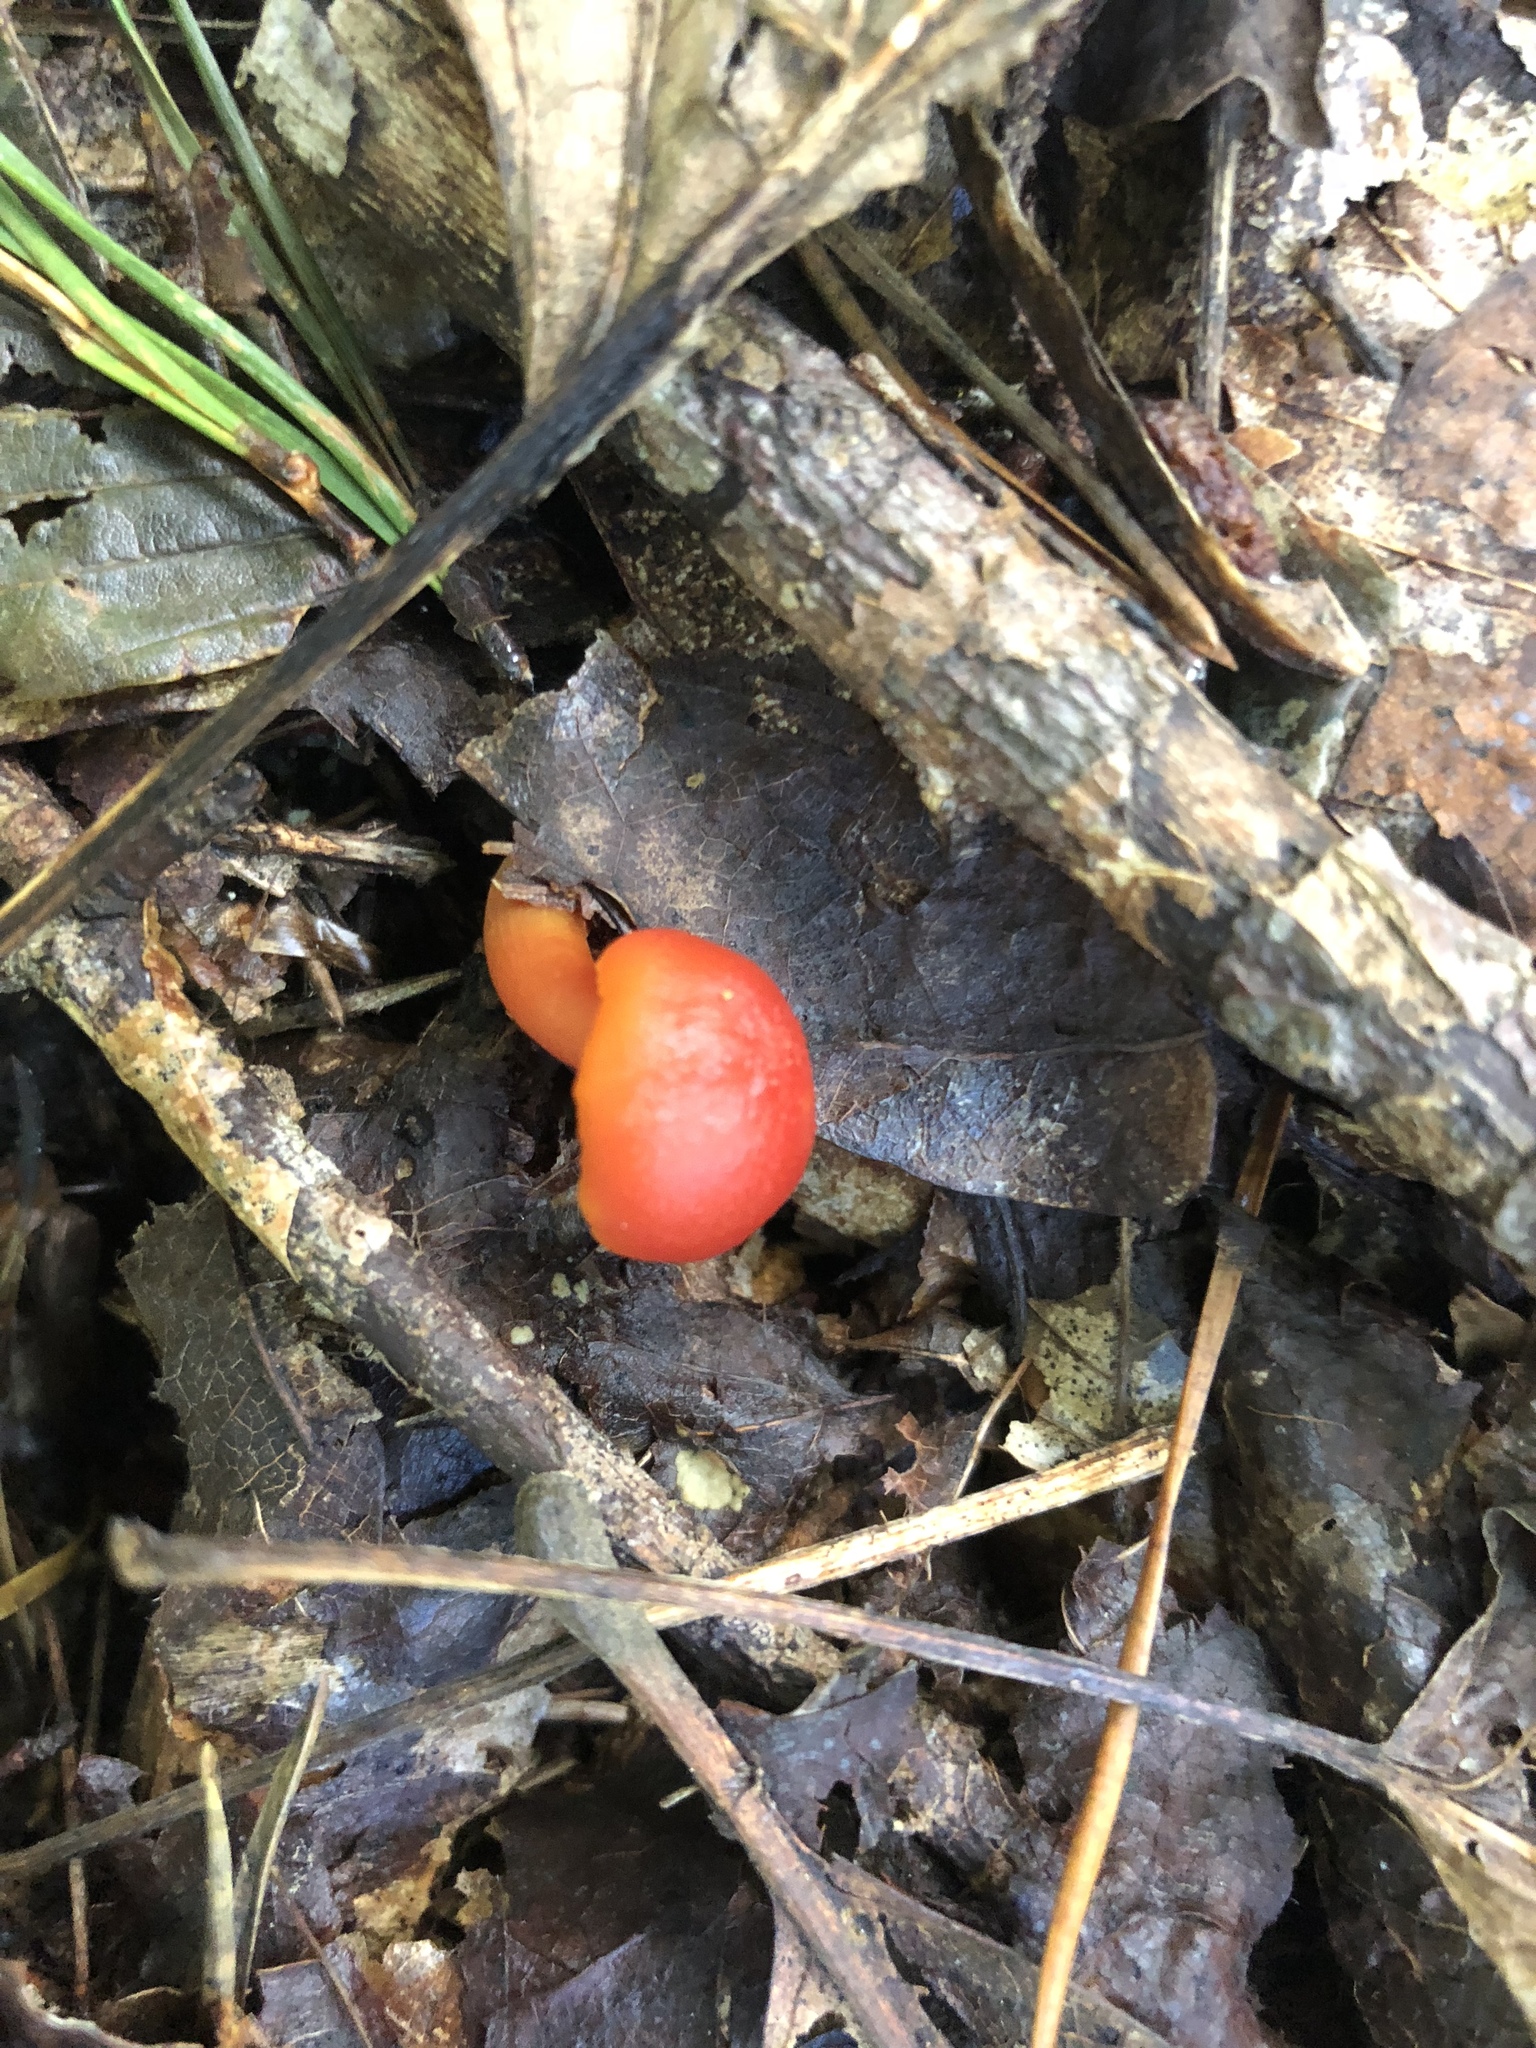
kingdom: Fungi
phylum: Basidiomycota
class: Agaricomycetes
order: Agaricales
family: Hygrophoraceae
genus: Hygrocybe
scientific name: Hygrocybe punicea
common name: Crimson waxcap
